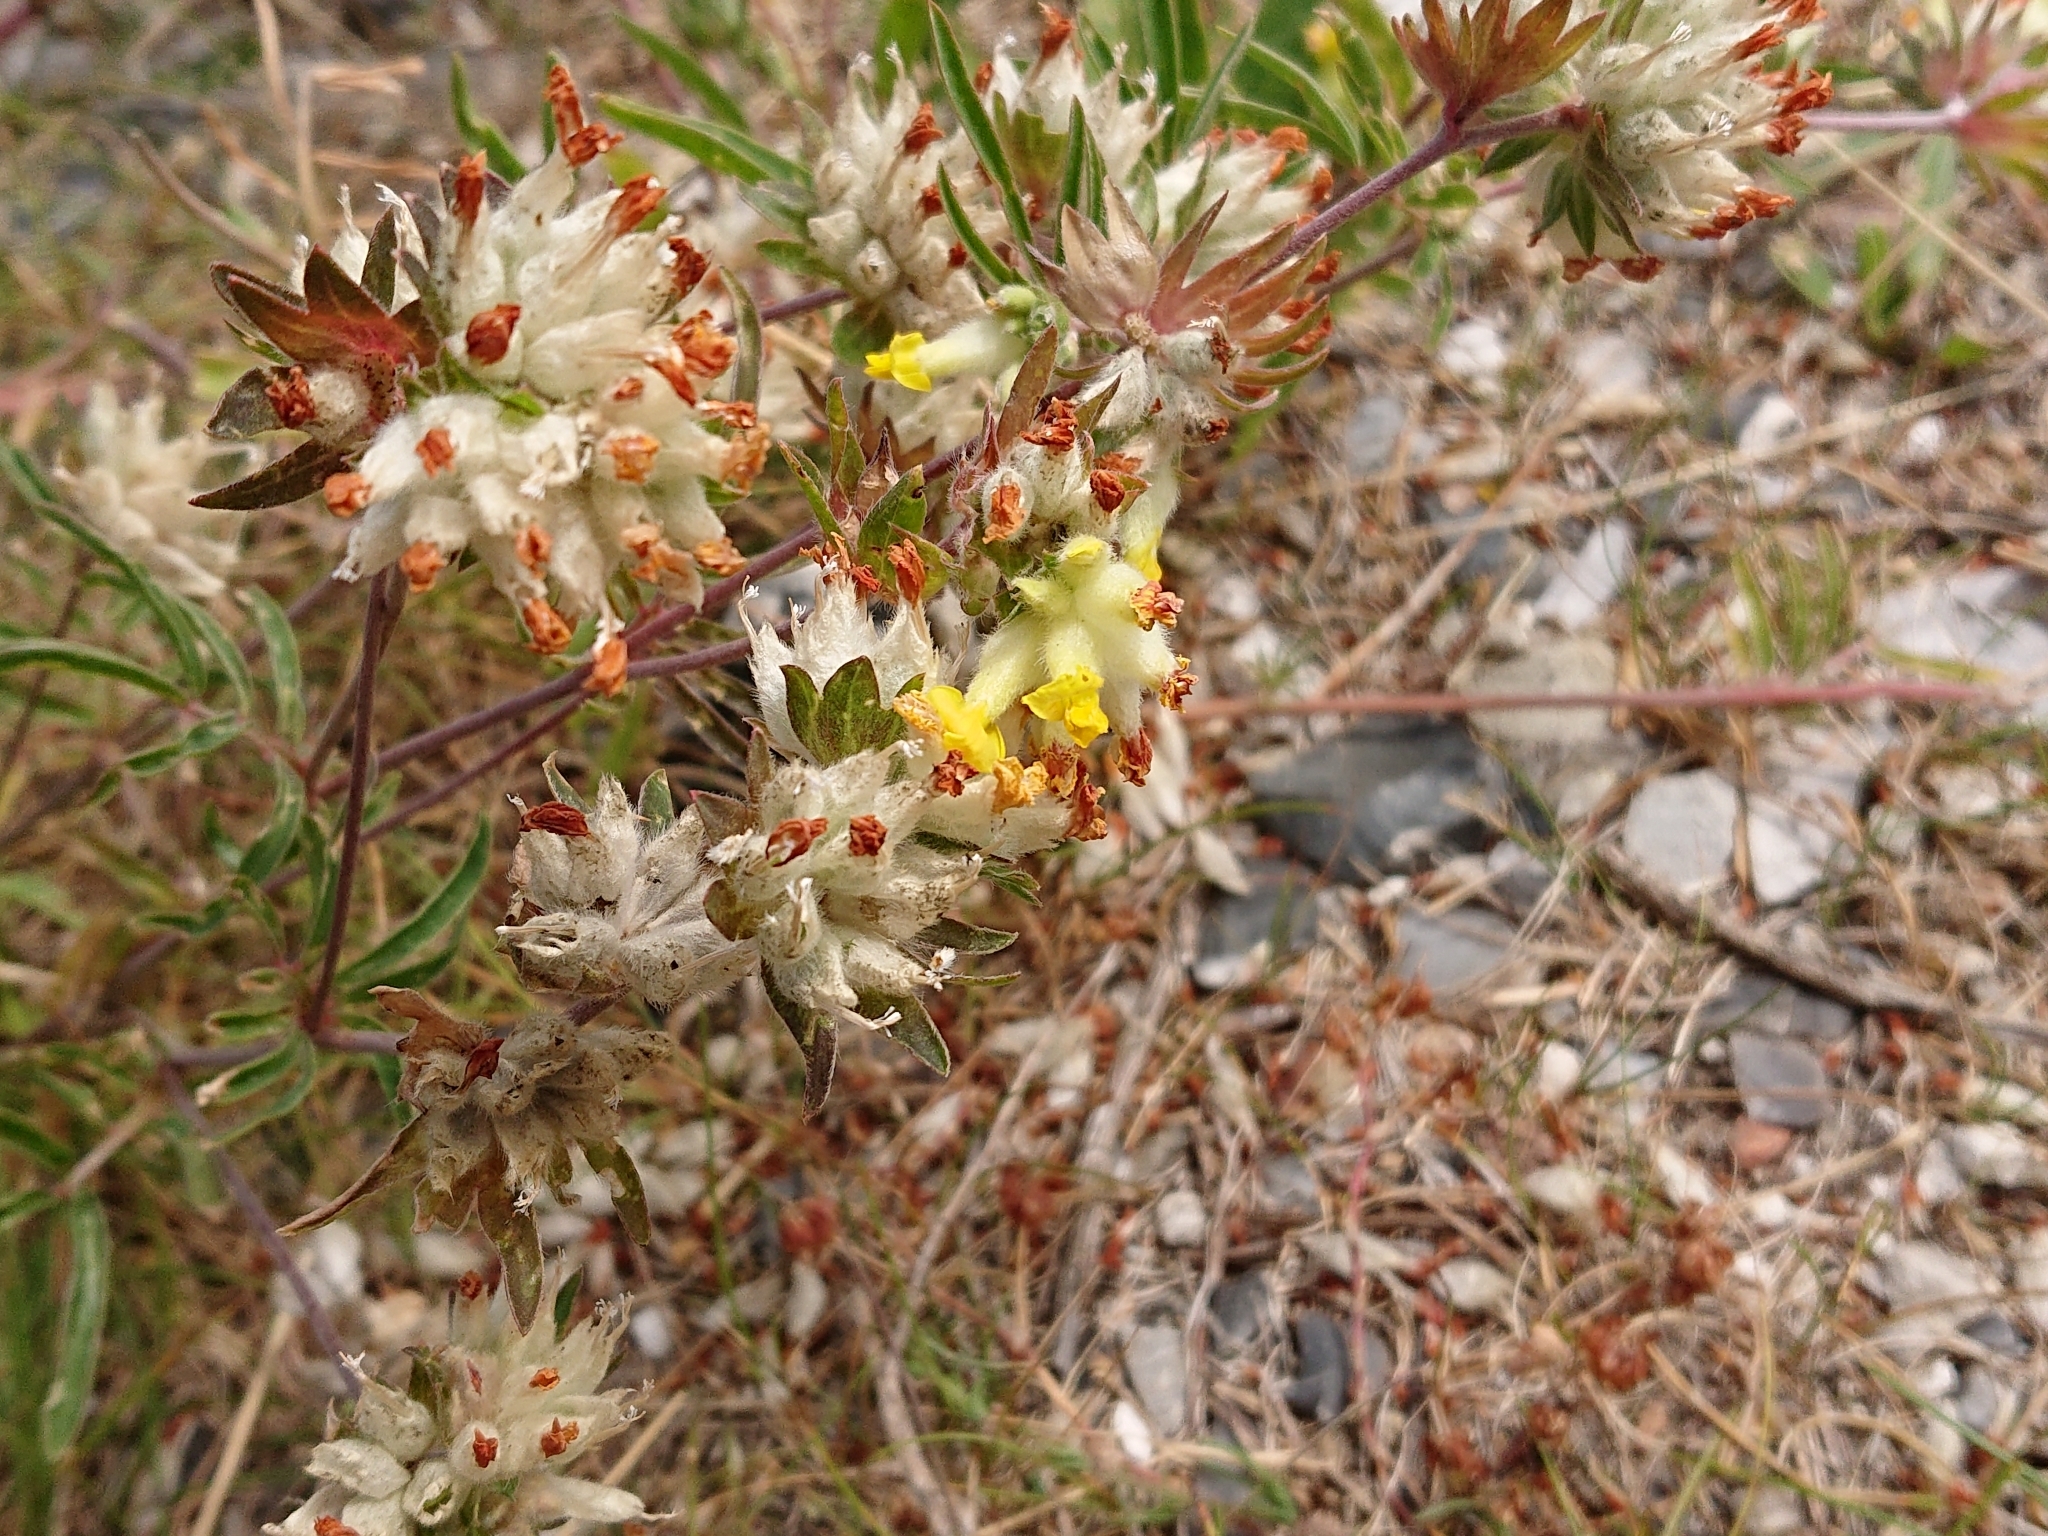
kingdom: Plantae
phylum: Tracheophyta
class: Magnoliopsida
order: Fabales
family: Fabaceae
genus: Anthyllis
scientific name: Anthyllis vulneraria
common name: Kidney vetch
